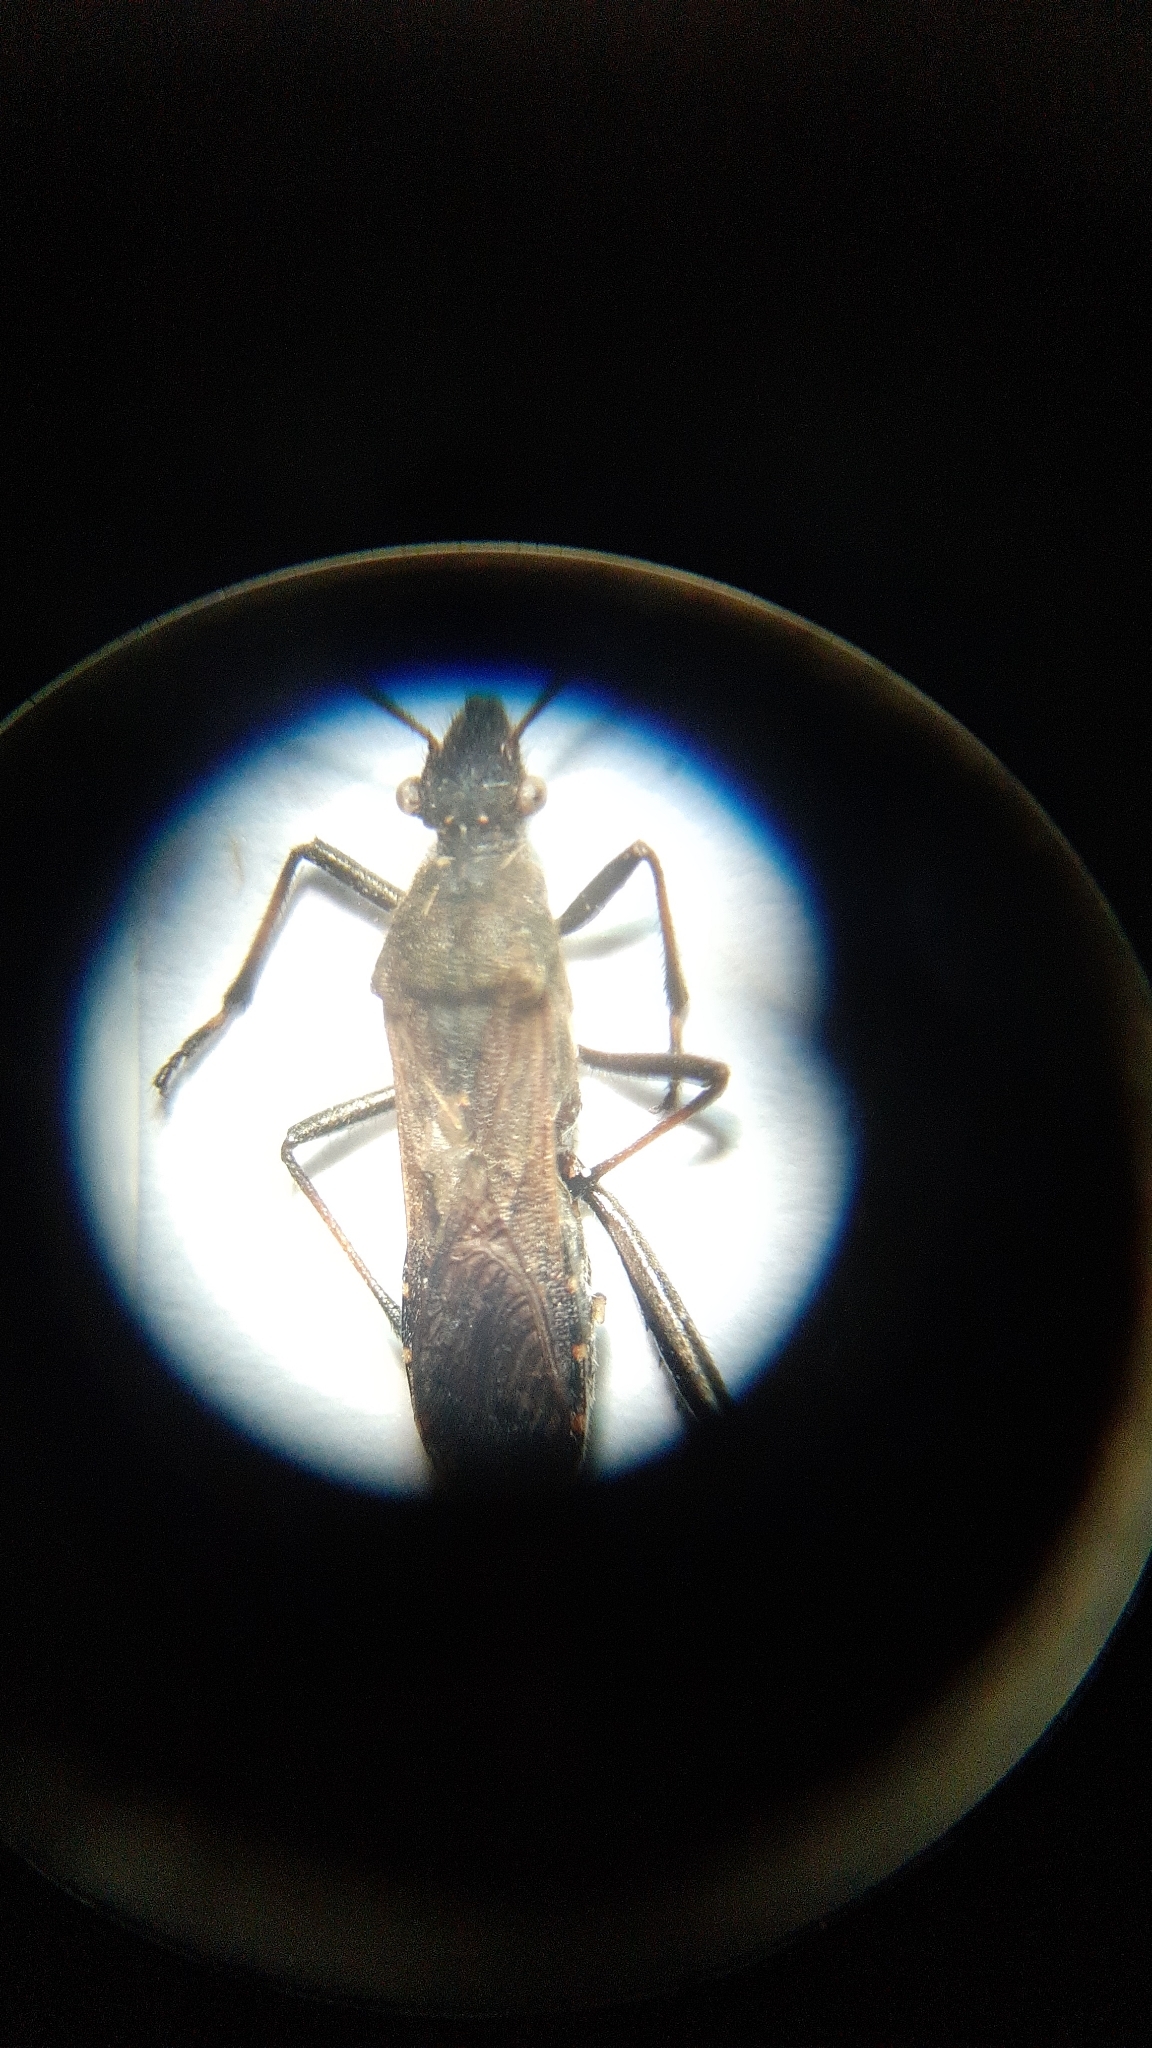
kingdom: Animalia
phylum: Arthropoda
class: Insecta
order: Hemiptera
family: Alydidae
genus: Alydus
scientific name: Alydus calcaratus
